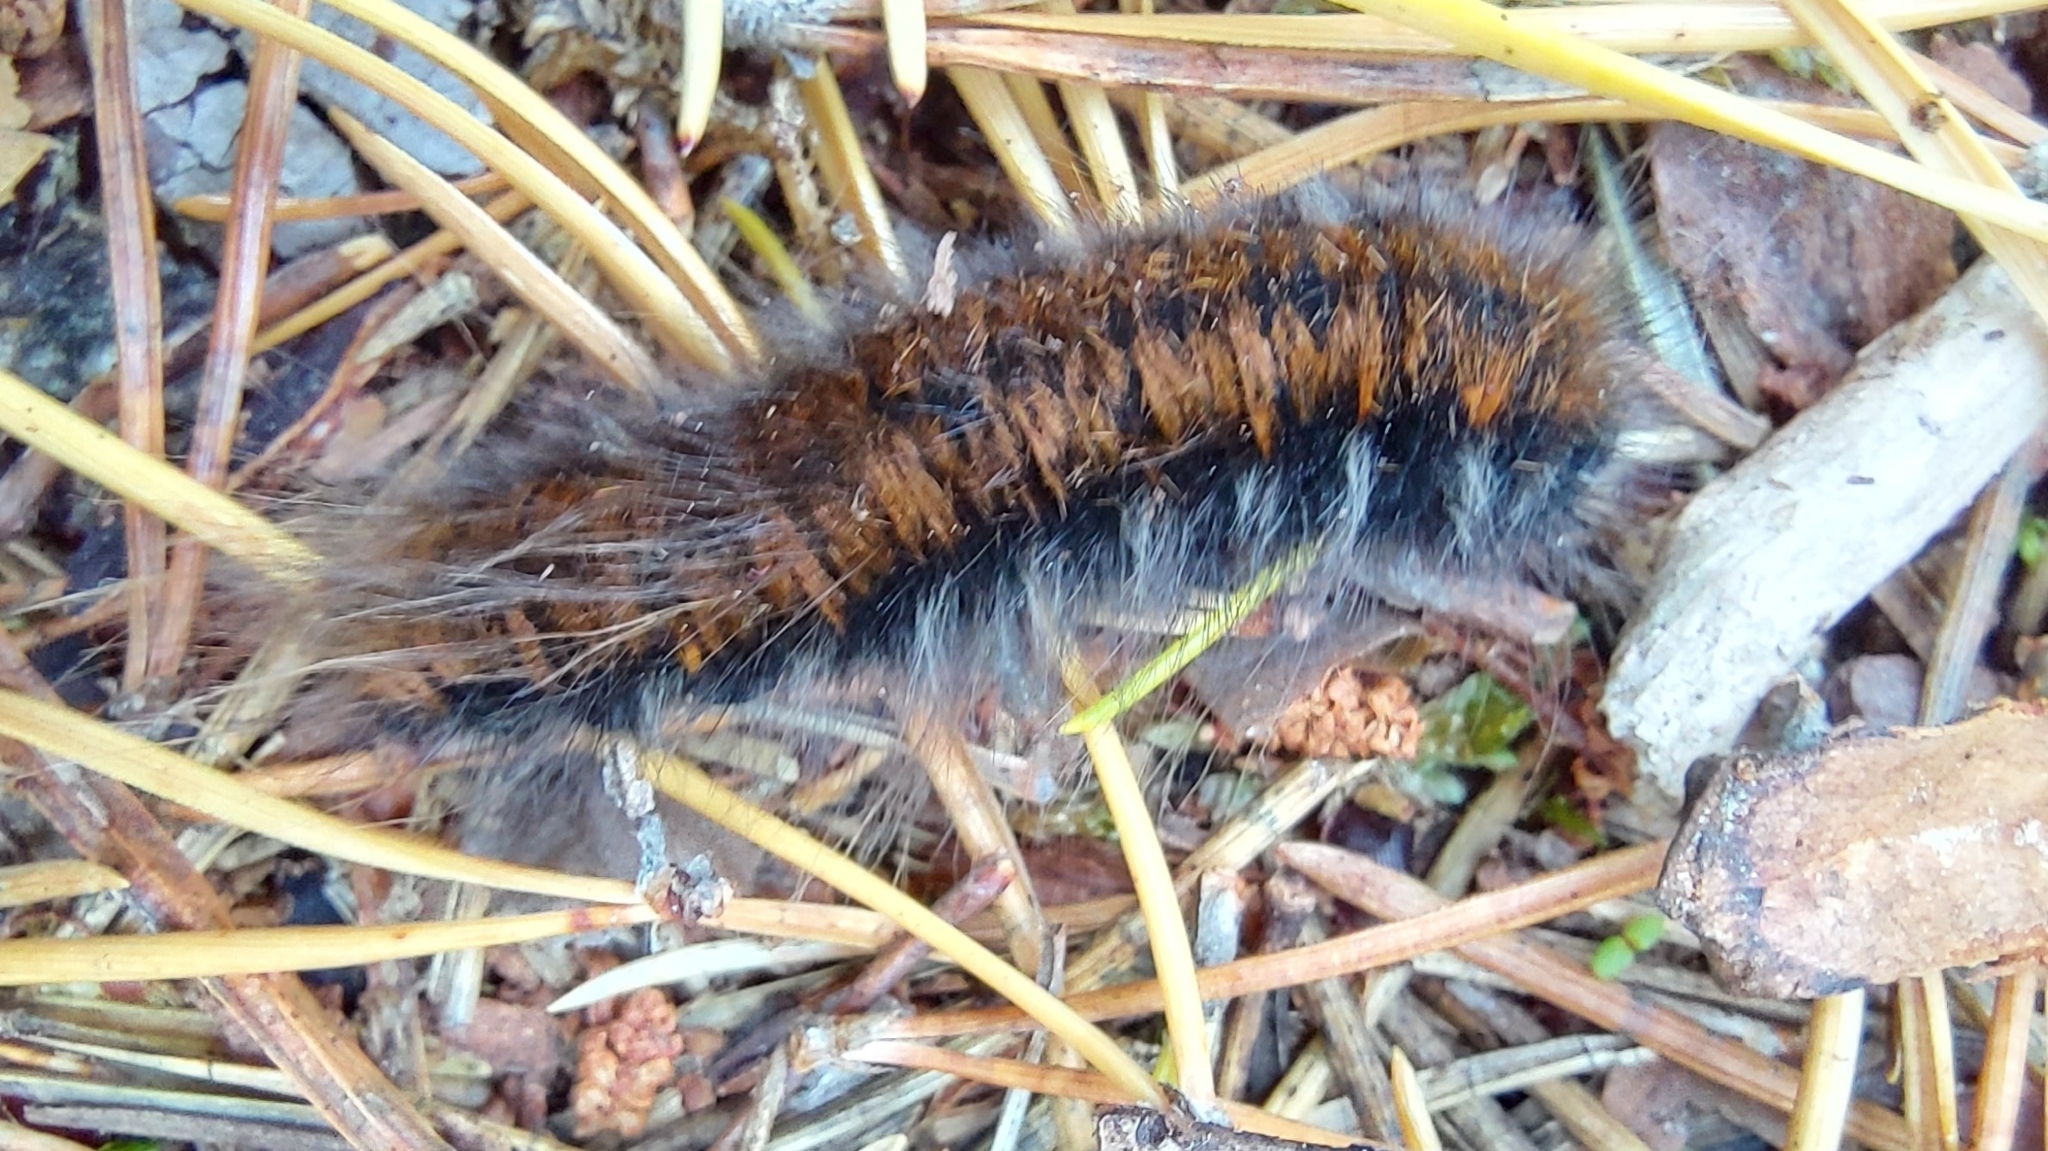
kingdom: Animalia
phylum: Arthropoda
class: Insecta
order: Lepidoptera
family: Lasiocampidae
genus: Macrothylacia
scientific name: Macrothylacia rubi
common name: Fox moth
